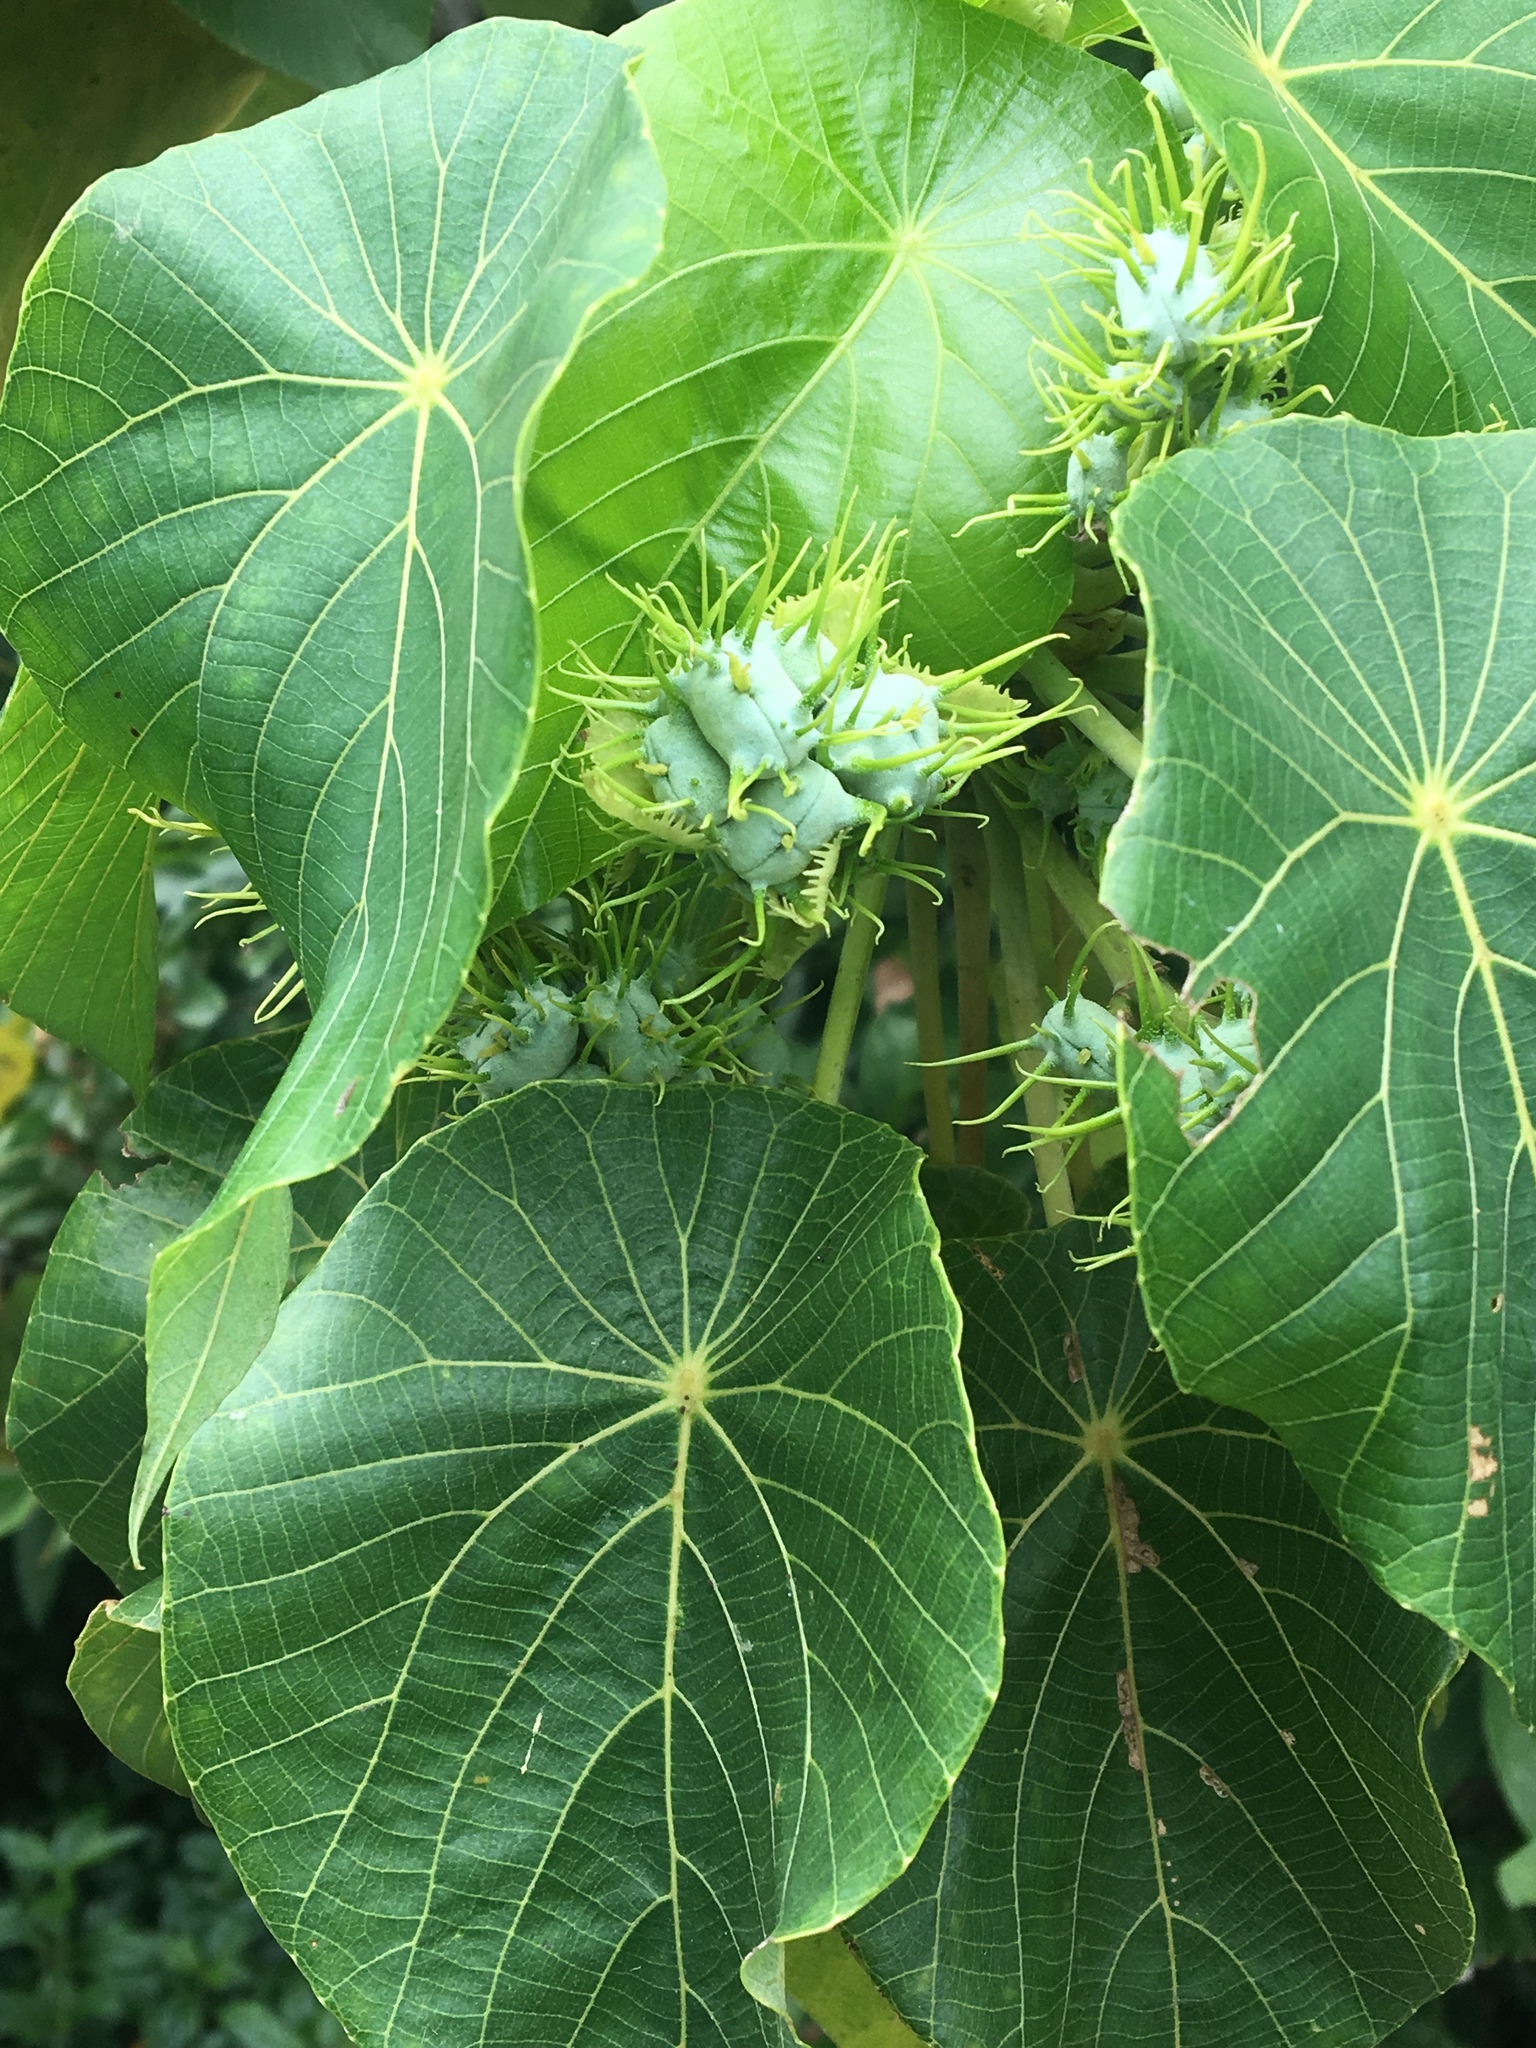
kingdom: Plantae
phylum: Tracheophyta
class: Magnoliopsida
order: Malpighiales
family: Euphorbiaceae
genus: Macaranga
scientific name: Macaranga tanarius
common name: Parasol leaf tree
